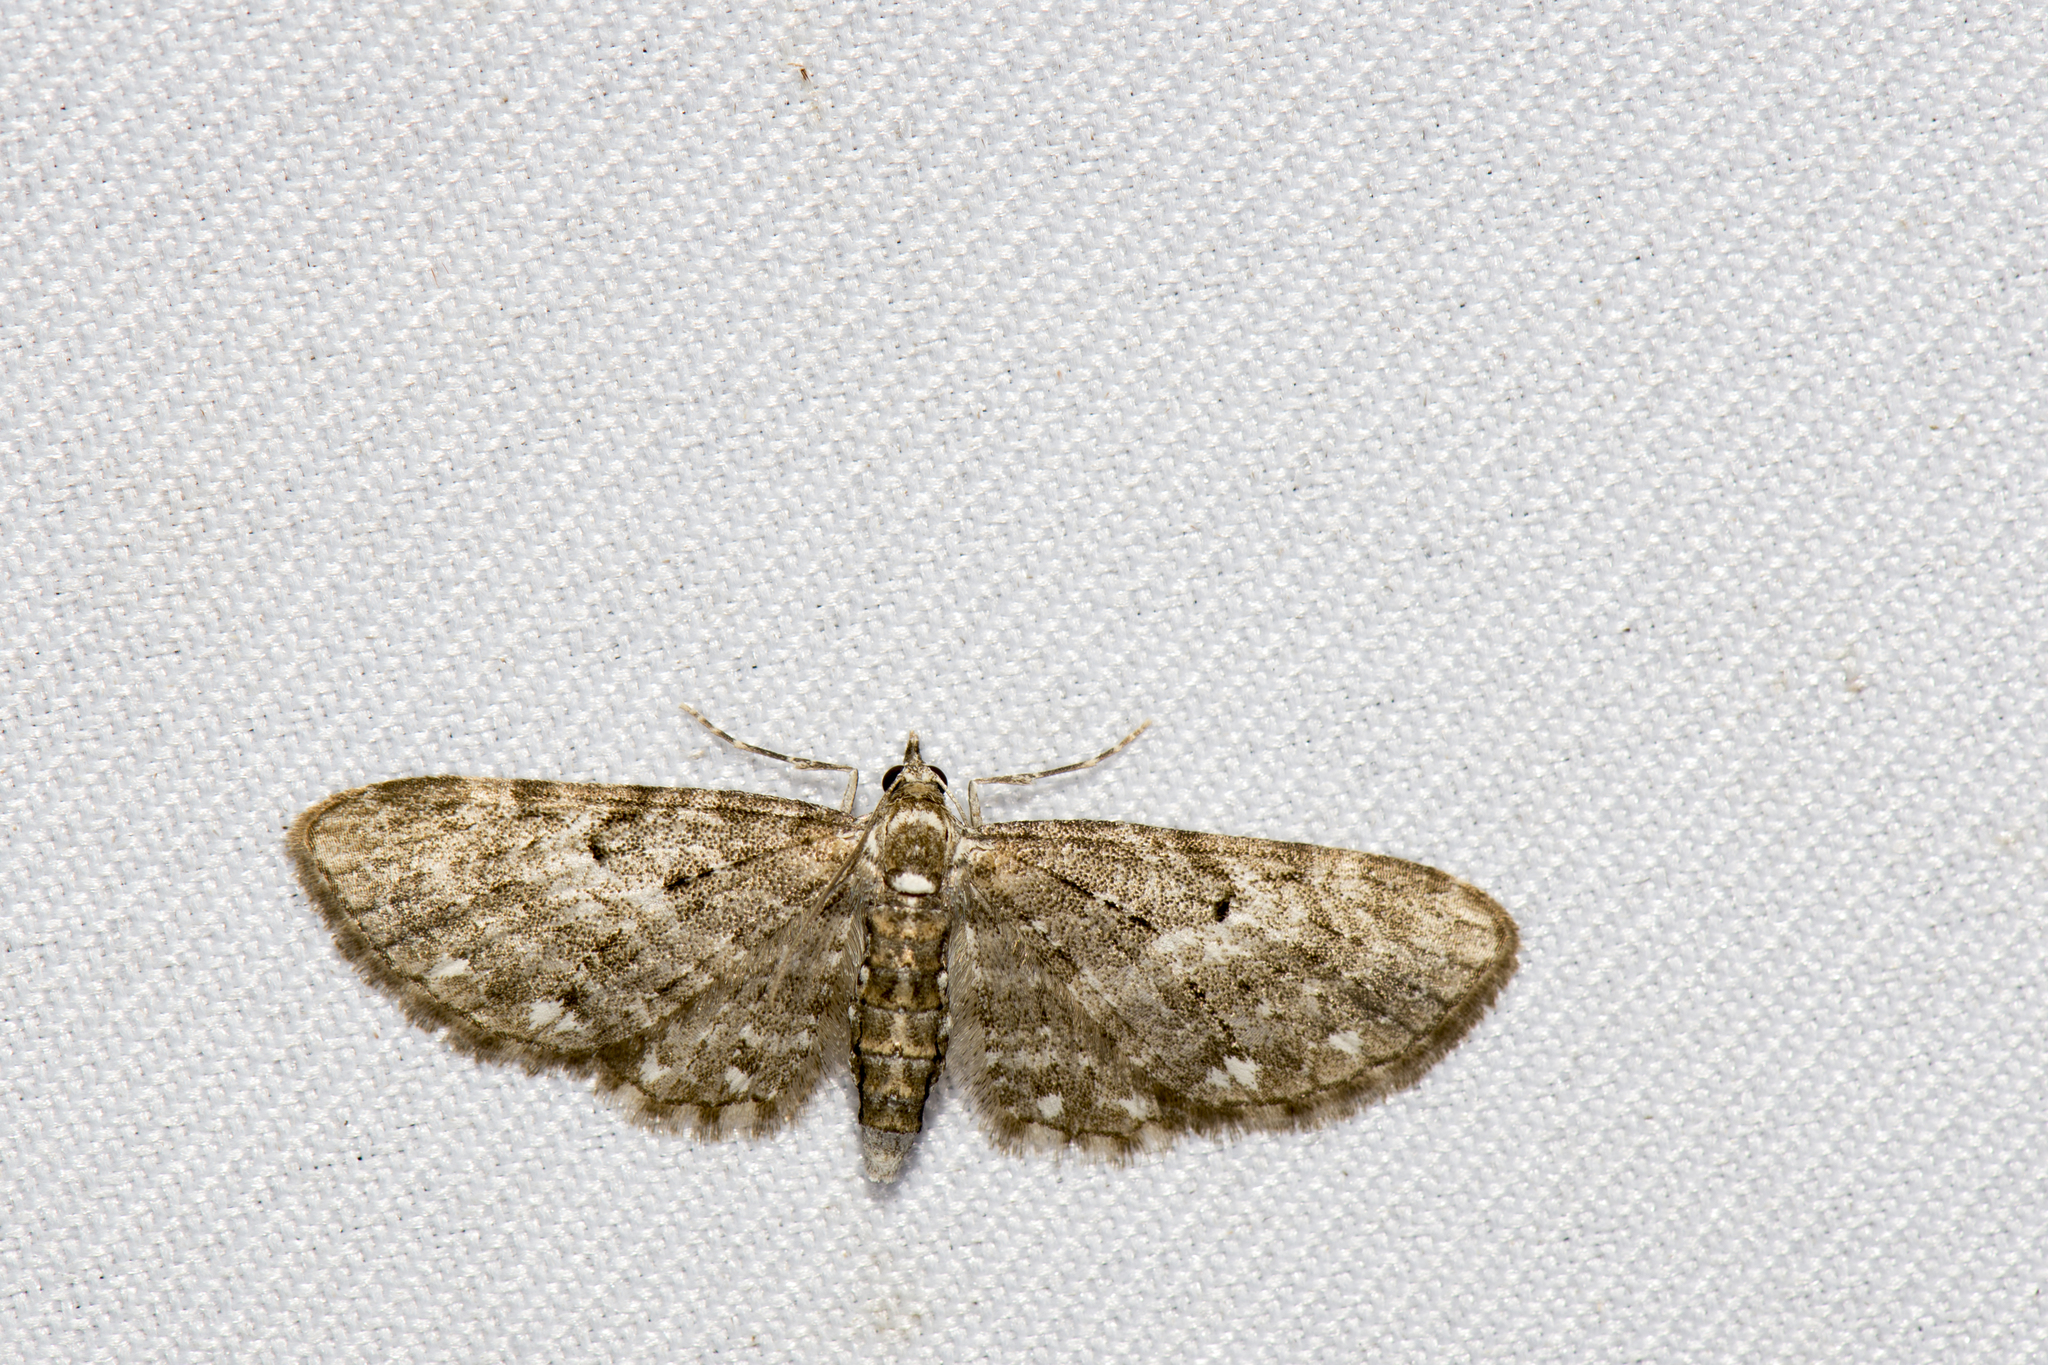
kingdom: Animalia
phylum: Arthropoda
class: Insecta
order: Lepidoptera
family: Geometridae
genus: Eupithecia
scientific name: Eupithecia blandula
